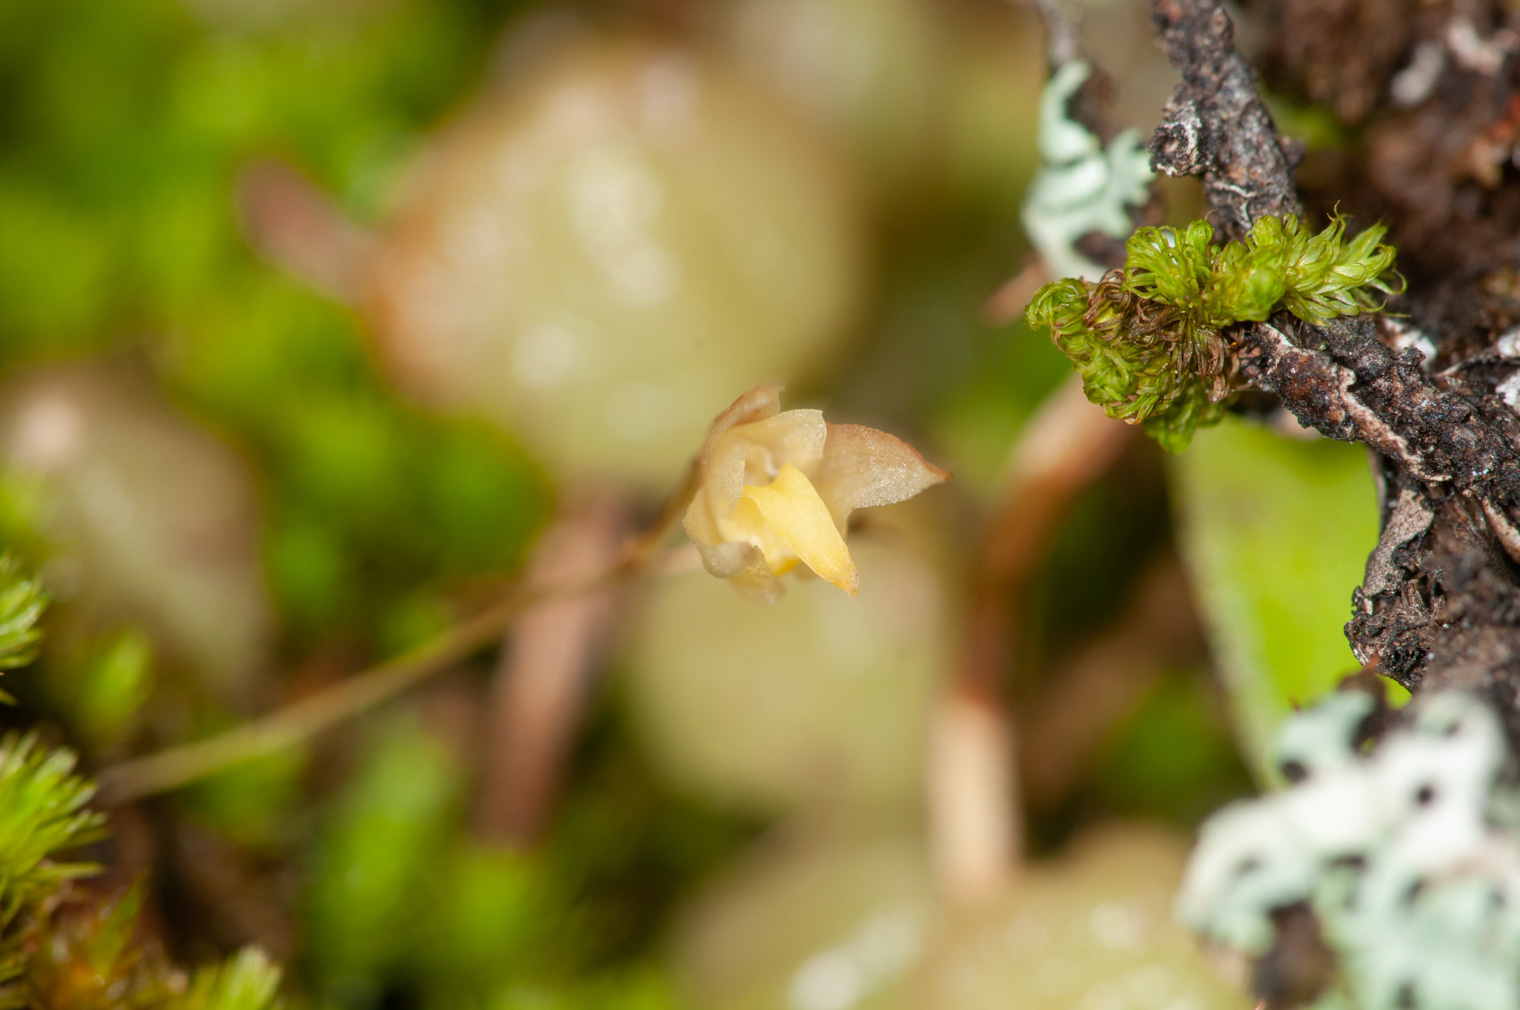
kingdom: Plantae
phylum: Tracheophyta
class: Liliopsida
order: Asparagales
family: Orchidaceae
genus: Bulbophyllum
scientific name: Bulbophyllum exiguum
